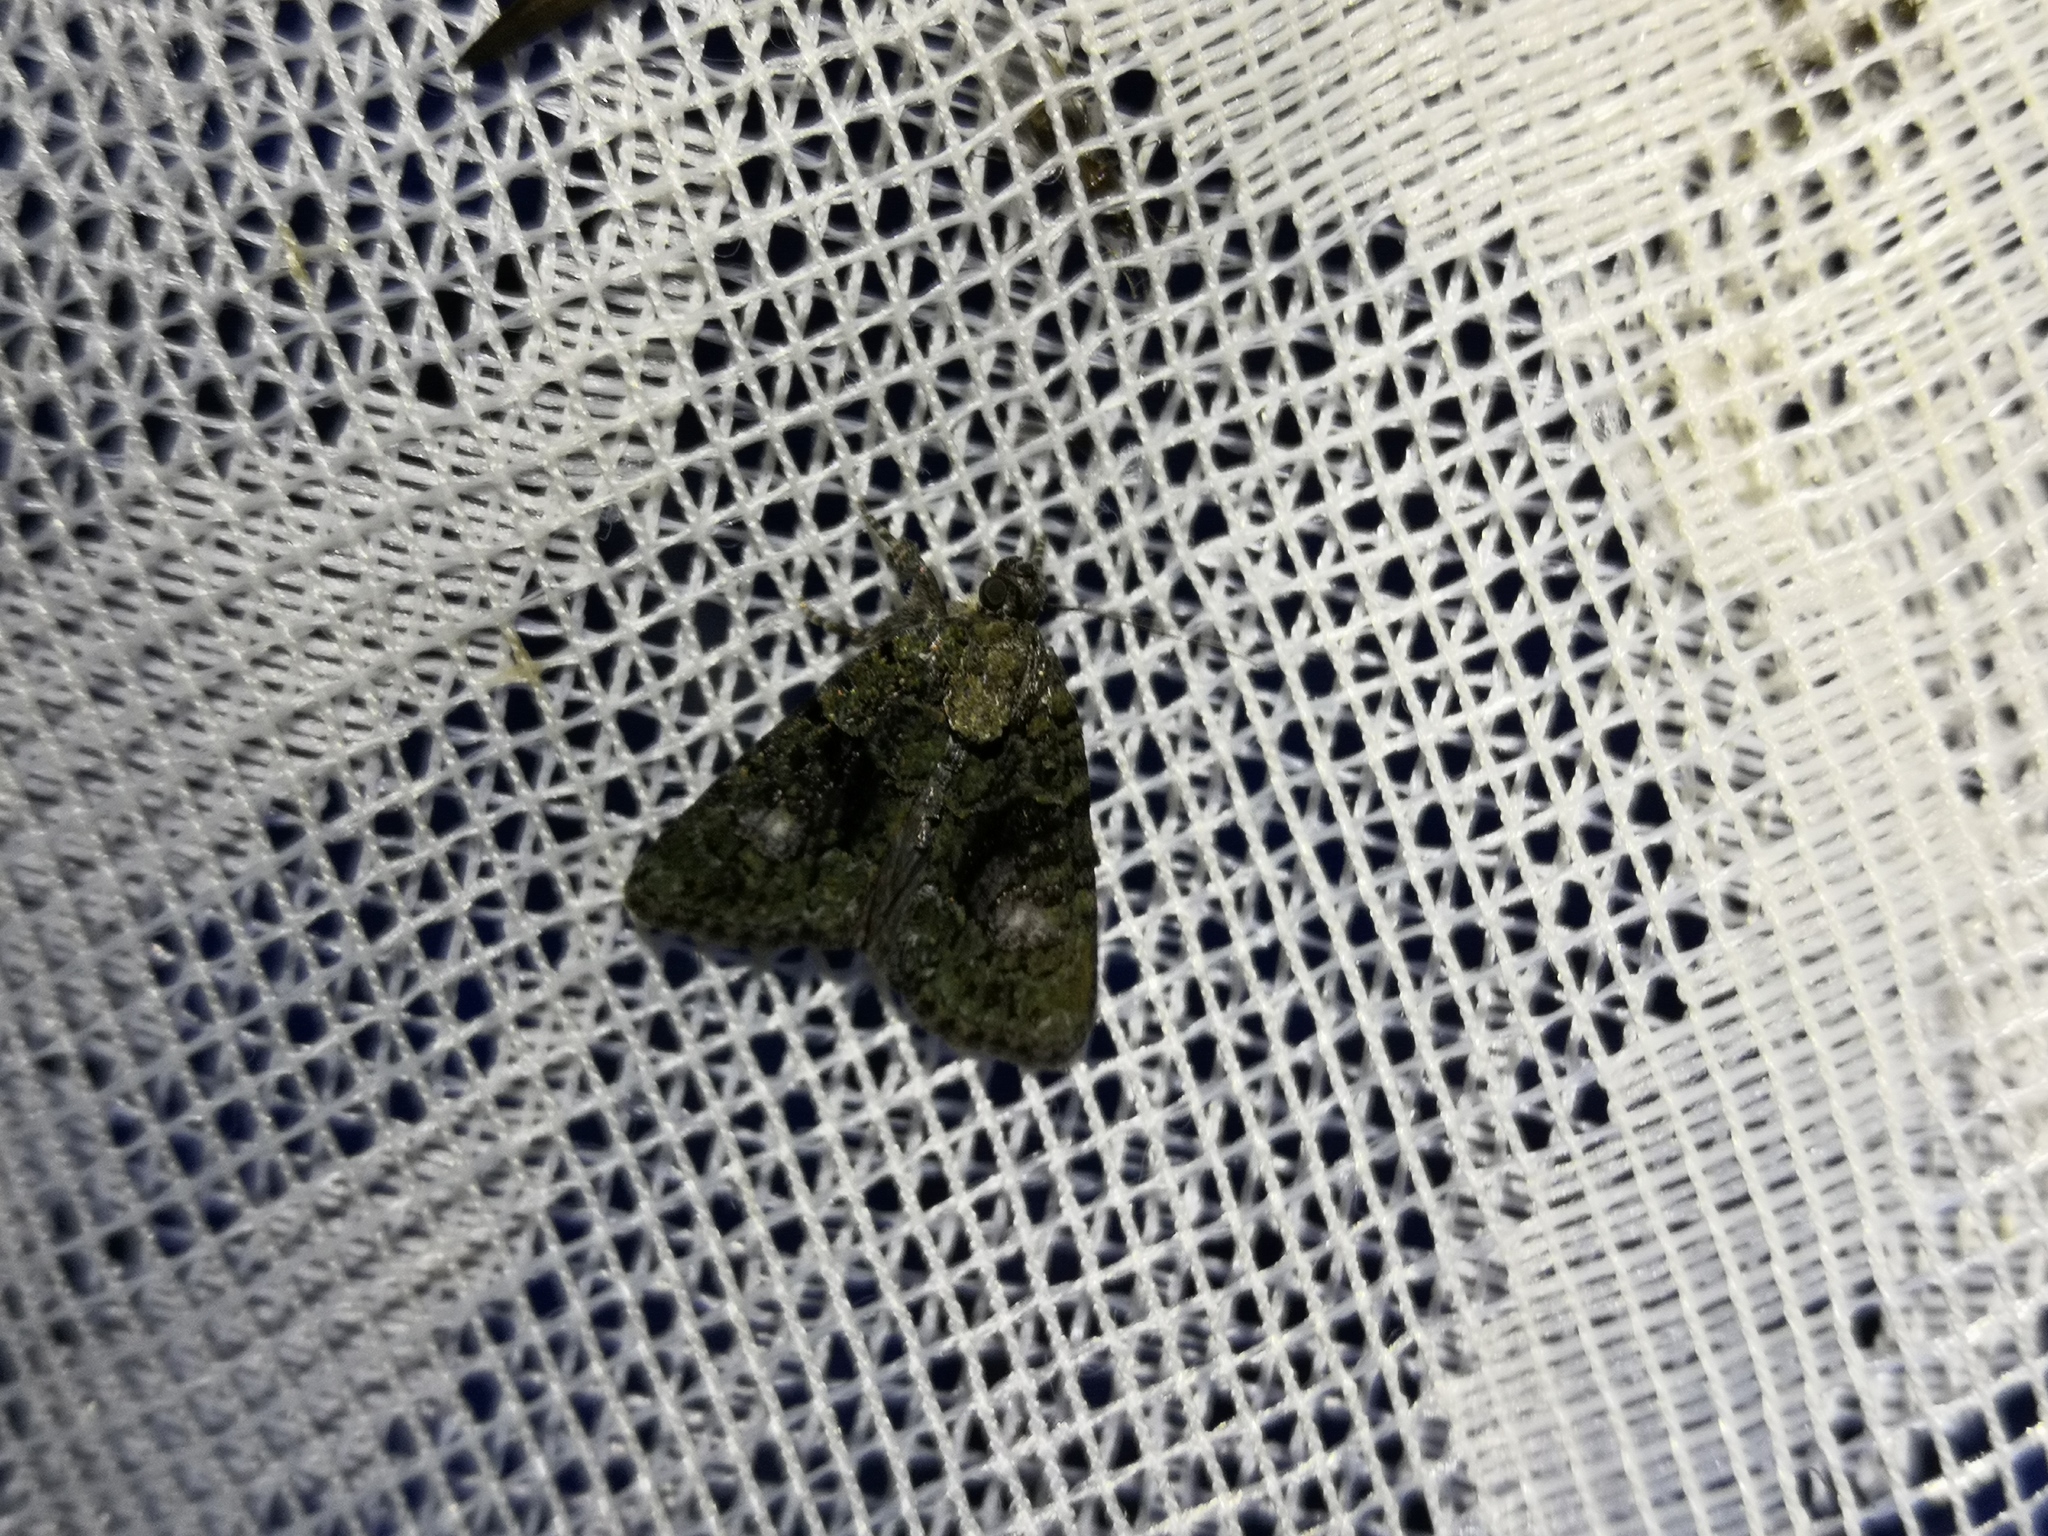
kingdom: Animalia
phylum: Arthropoda
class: Insecta
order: Lepidoptera
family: Noctuidae
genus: Cryphia
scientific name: Cryphia algae
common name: Tree-lichen beauty
